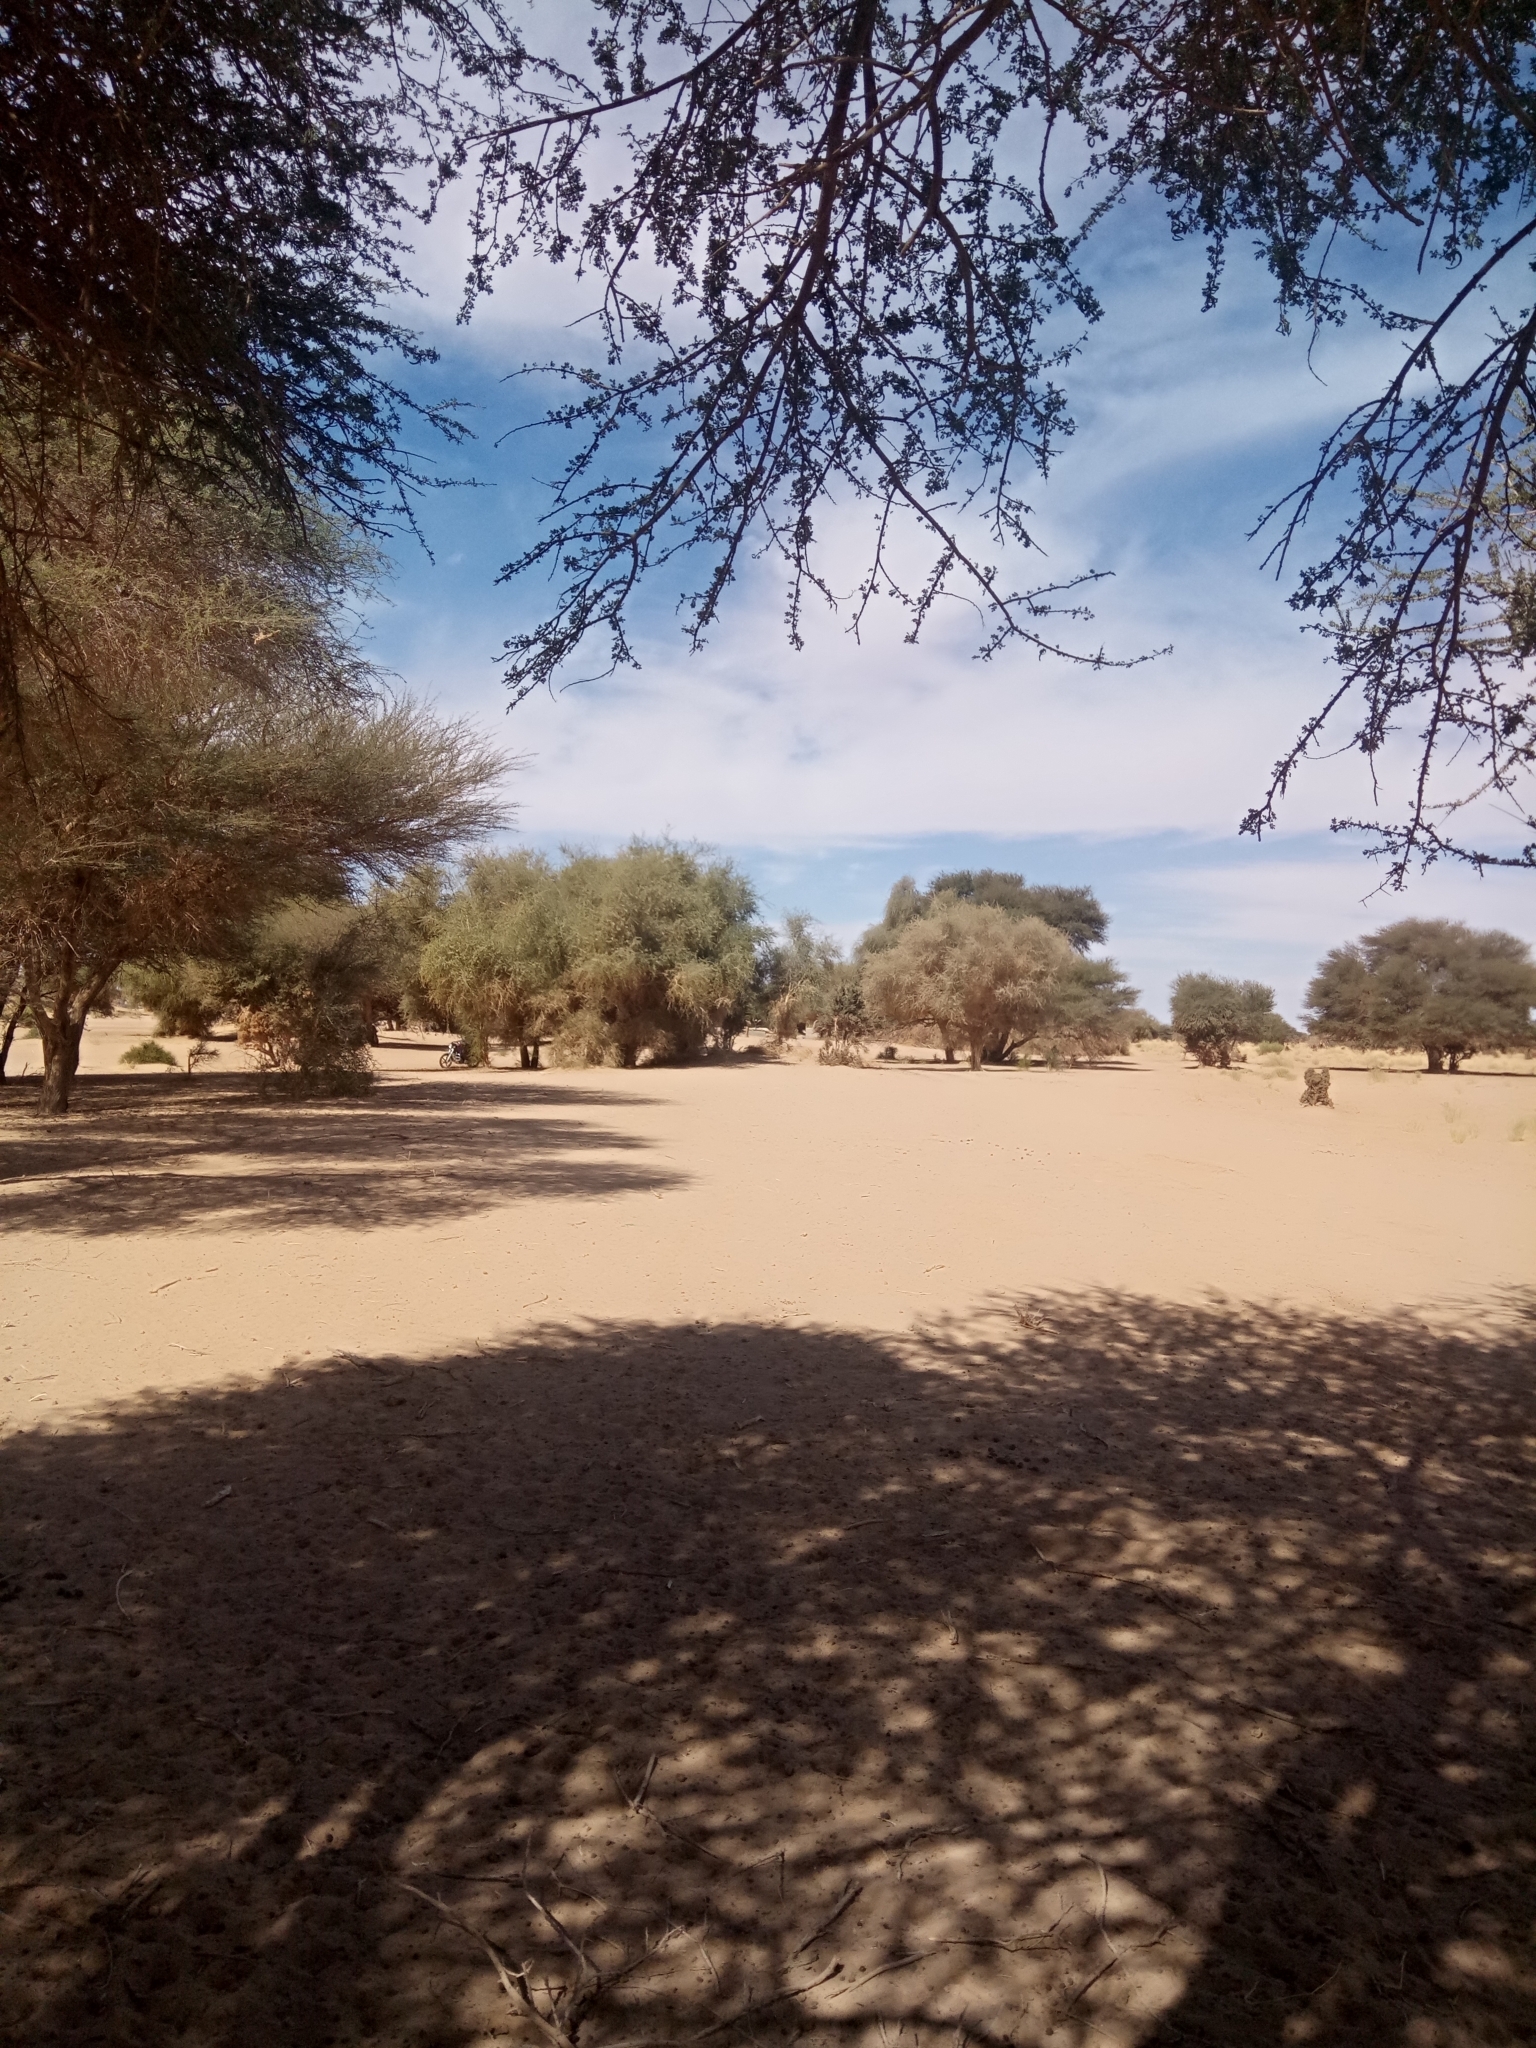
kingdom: Plantae
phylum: Tracheophyta
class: Magnoliopsida
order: Fabales
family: Fabaceae
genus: Vachellia
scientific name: Vachellia tortilis
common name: Umbrella thorn acacia
